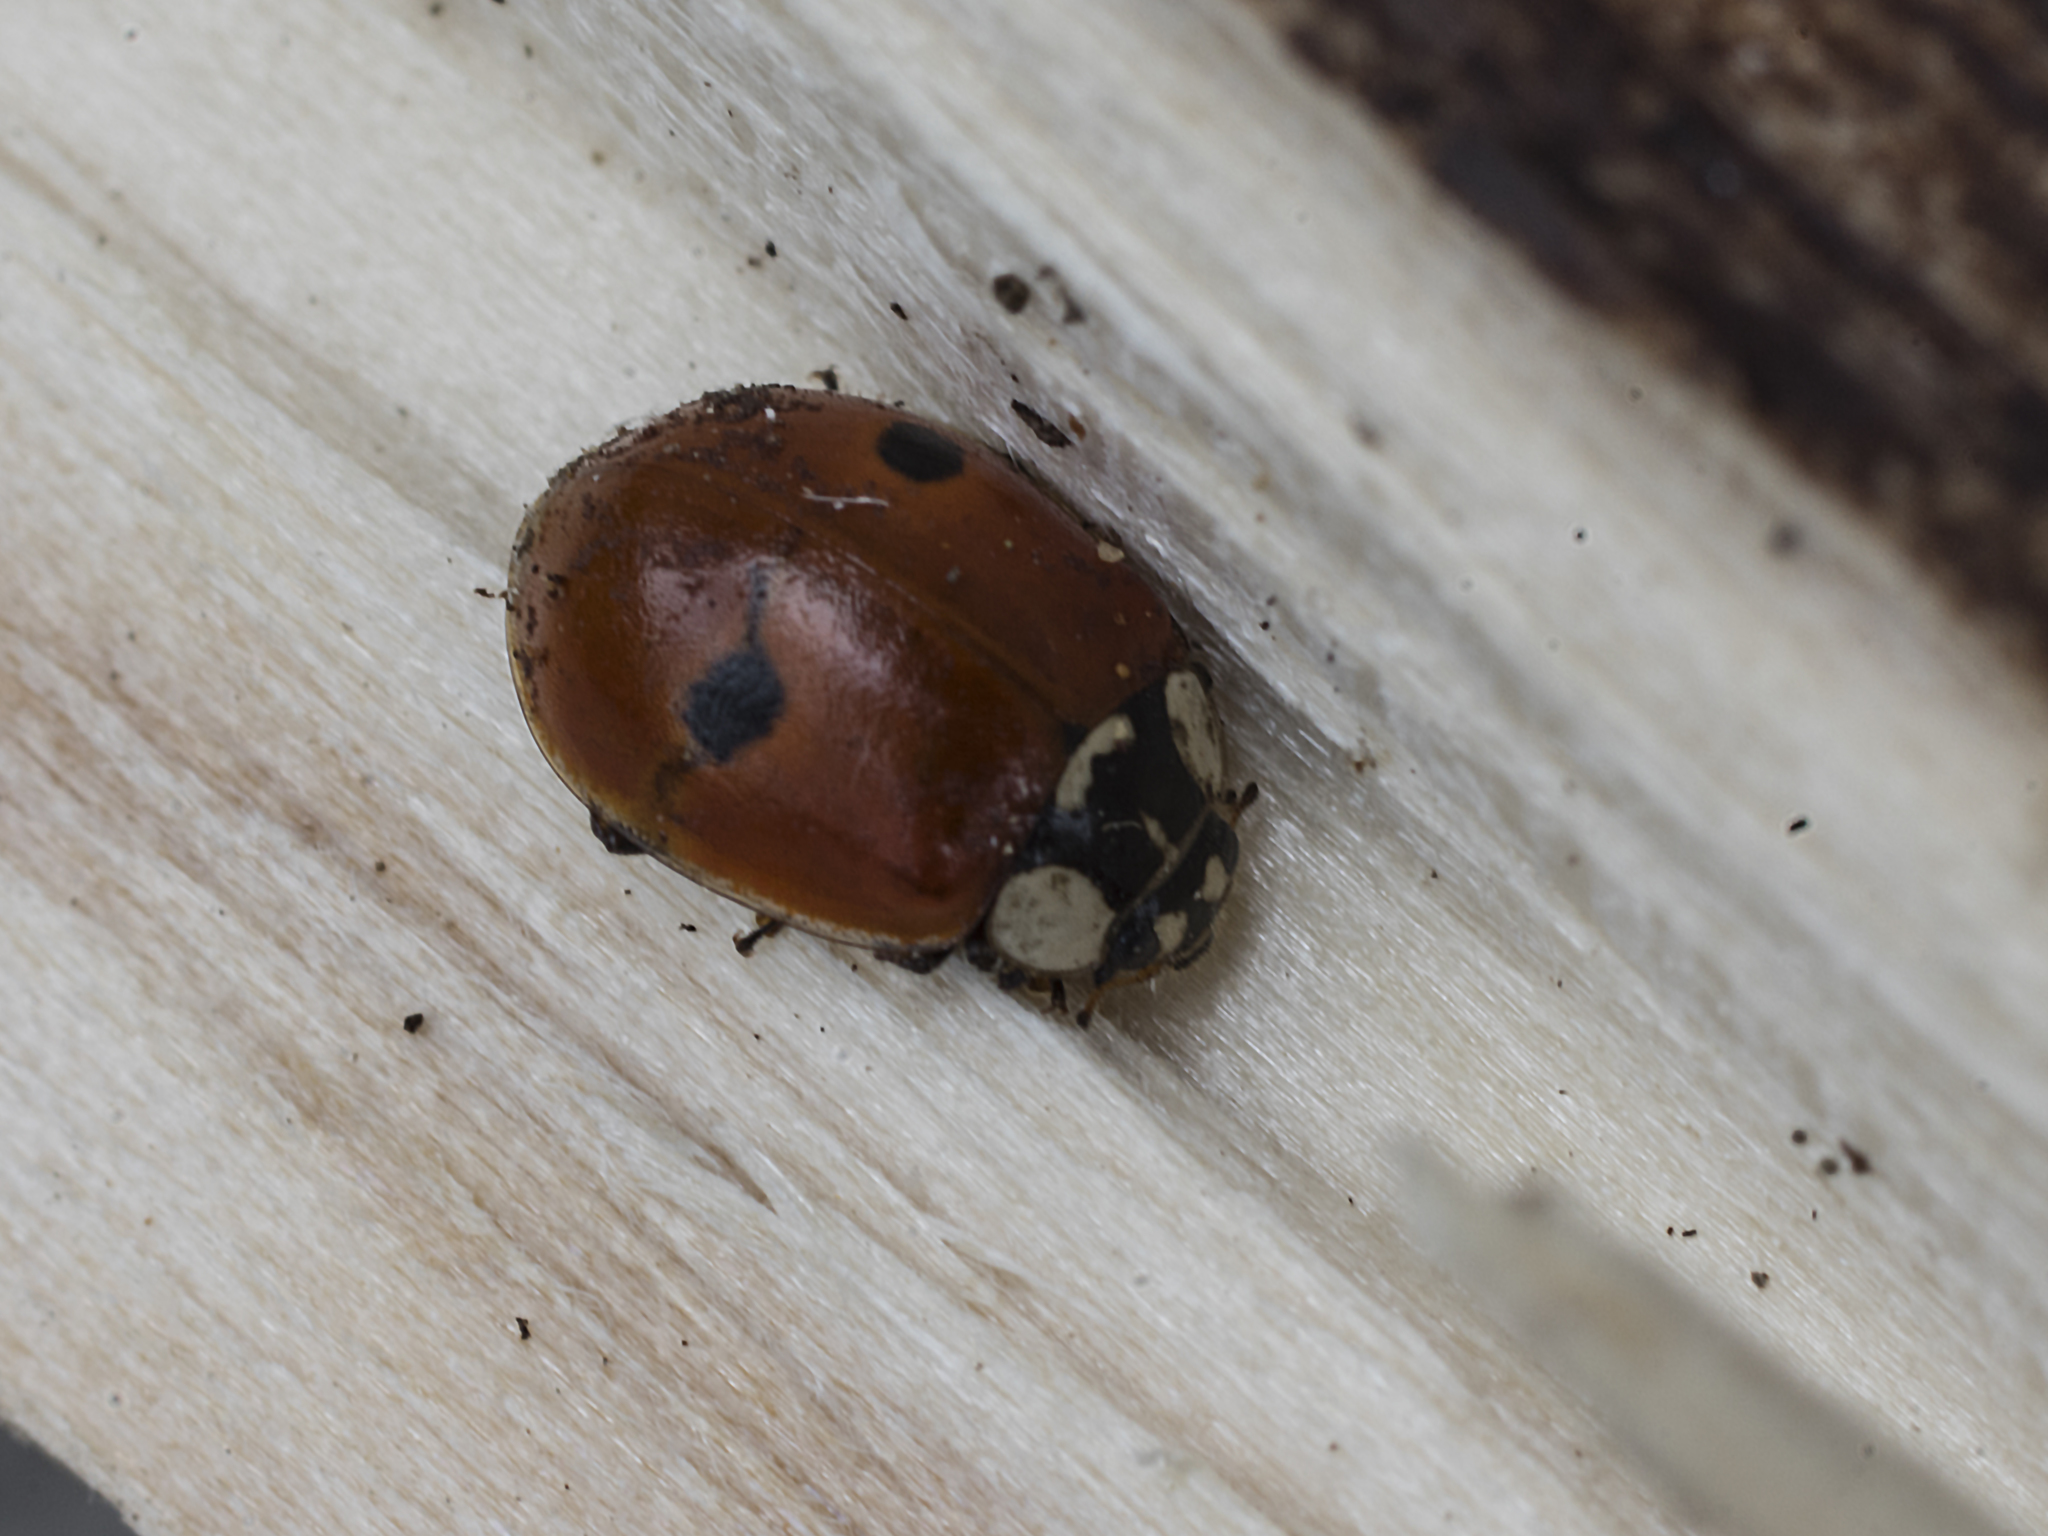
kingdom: Animalia
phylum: Arthropoda
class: Insecta
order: Coleoptera
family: Coccinellidae
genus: Adalia
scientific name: Adalia bipunctata
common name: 2-spot ladybird
